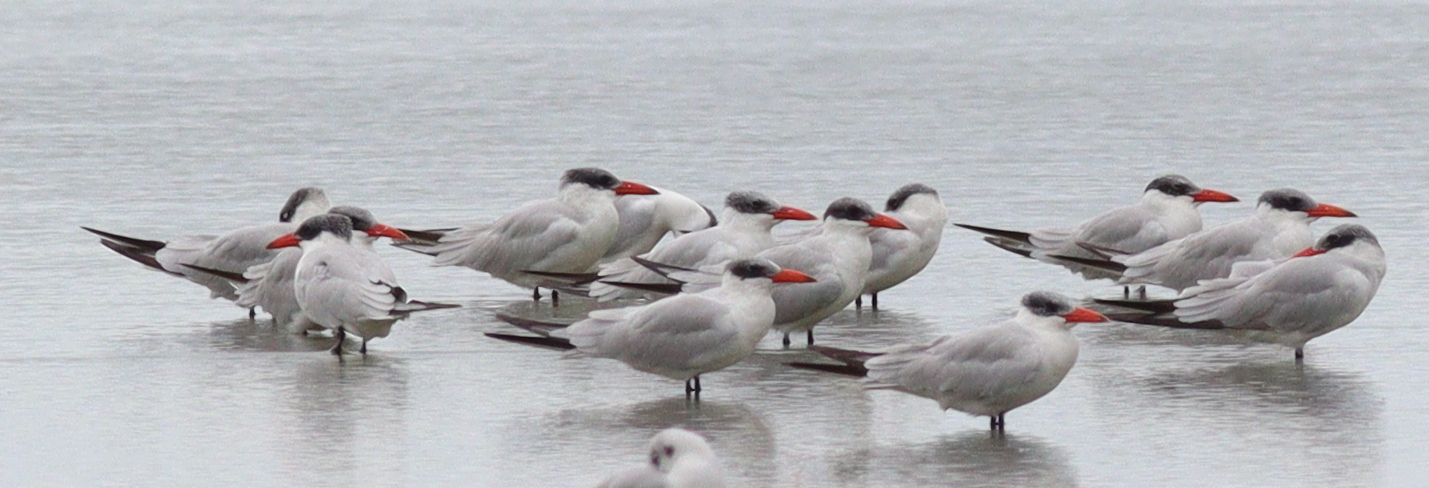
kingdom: Animalia
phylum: Chordata
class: Aves
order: Charadriiformes
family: Laridae
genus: Hydroprogne
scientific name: Hydroprogne caspia
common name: Caspian tern
